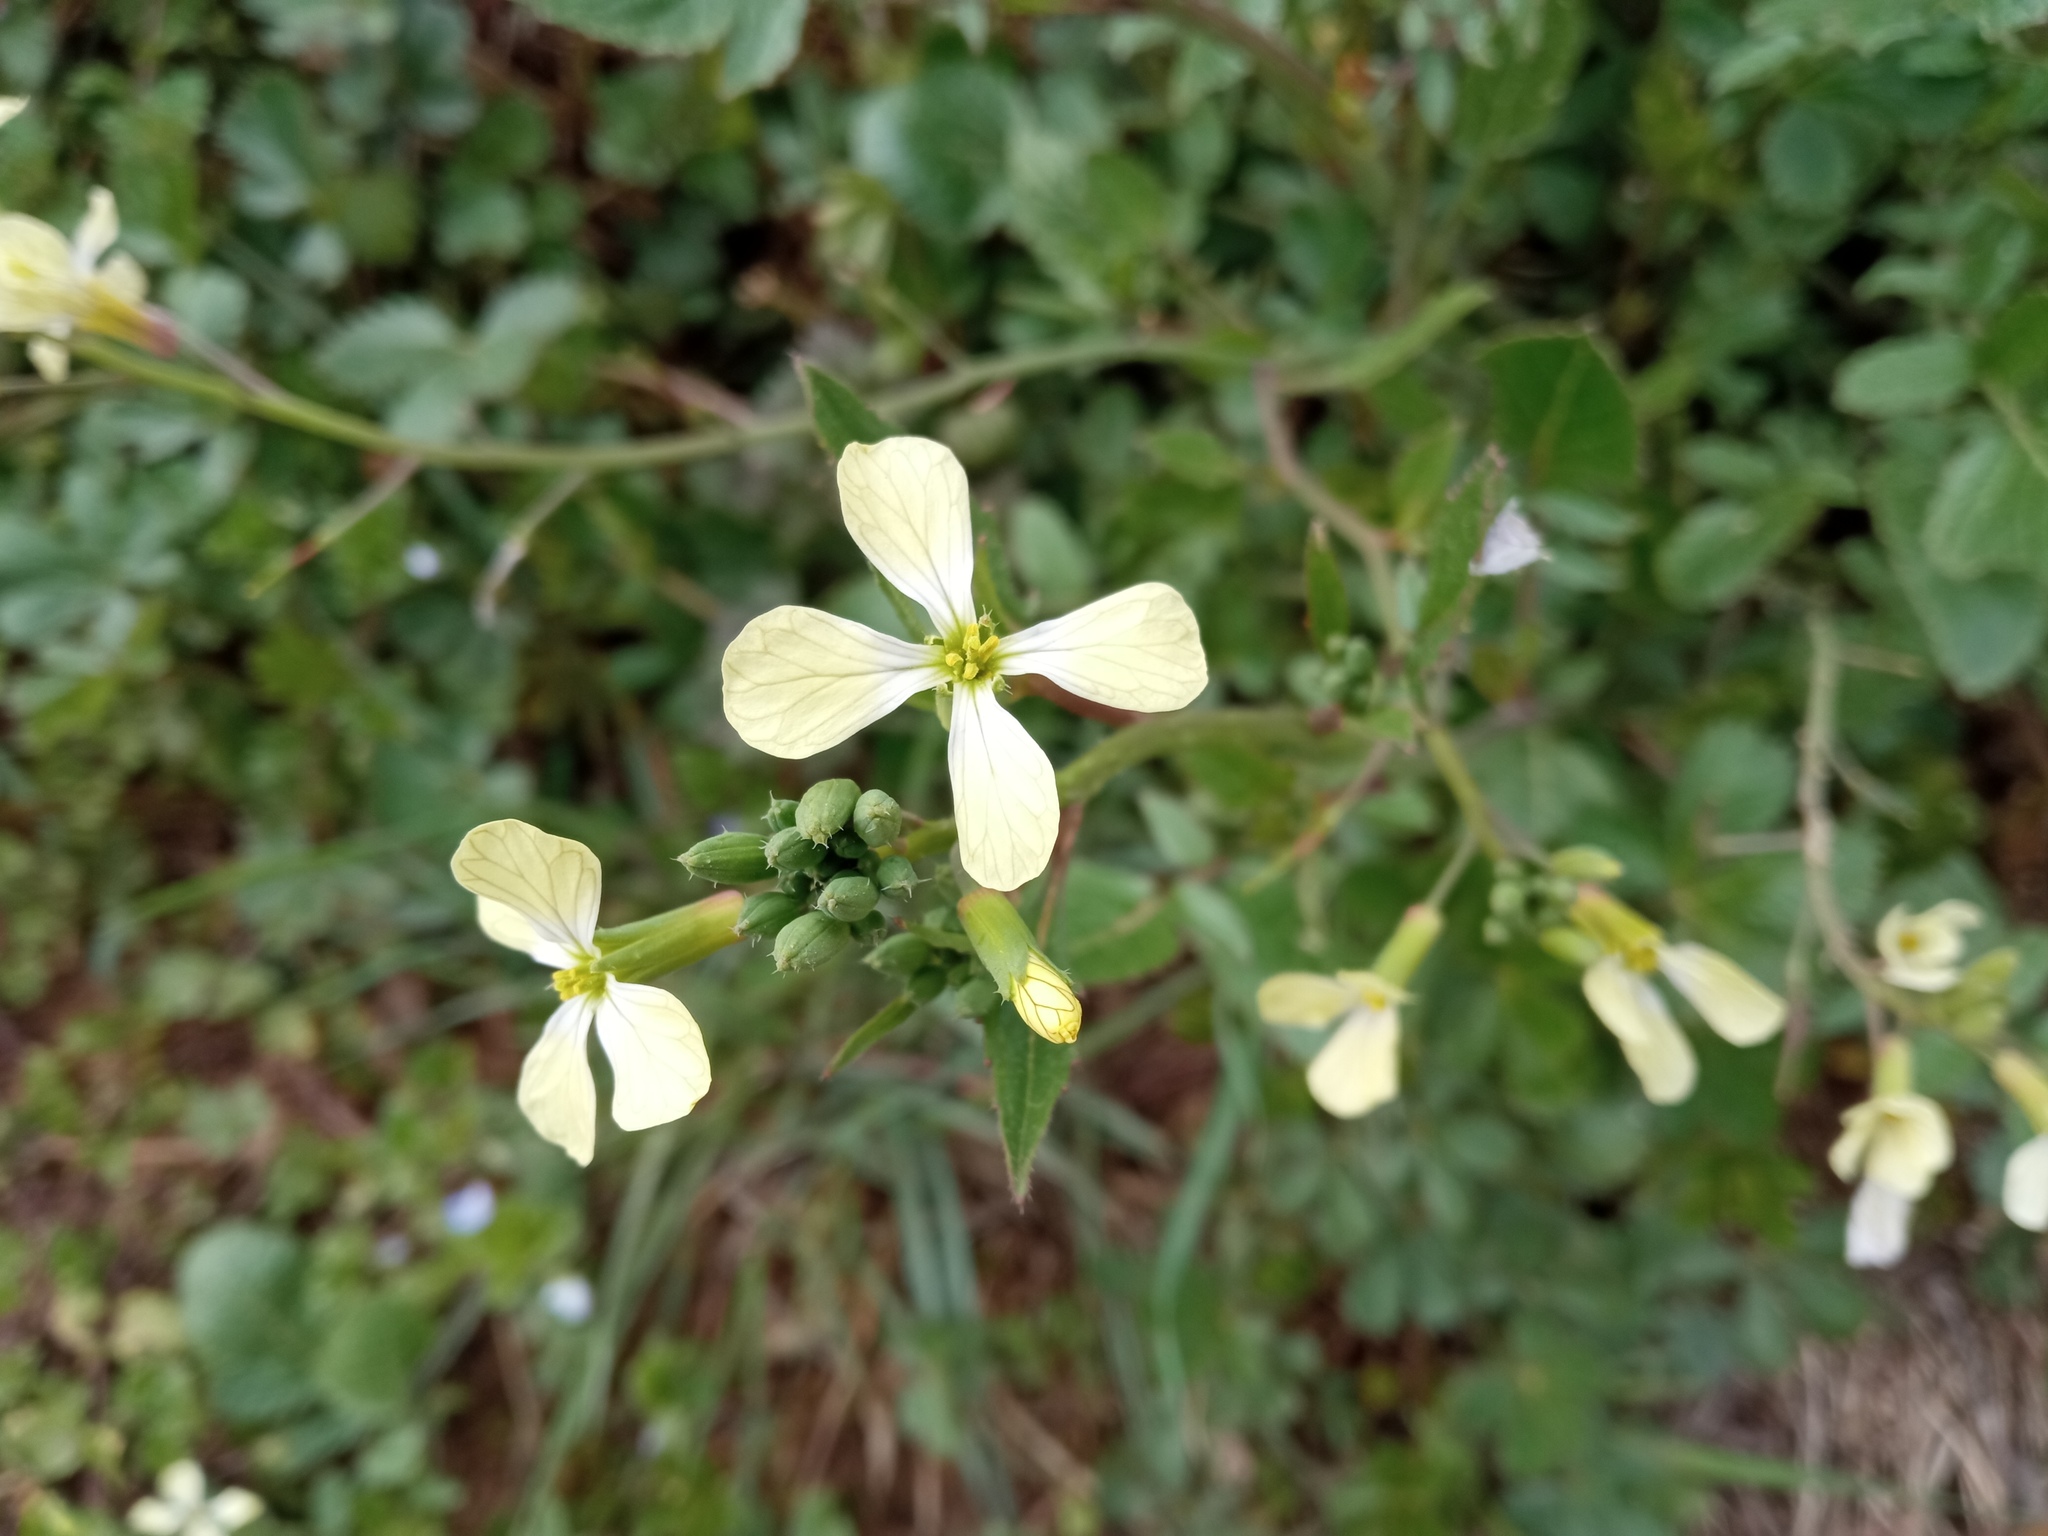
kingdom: Plantae
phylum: Tracheophyta
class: Magnoliopsida
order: Brassicales
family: Brassicaceae
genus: Raphanus
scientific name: Raphanus raphanistrum
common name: Wild radish
